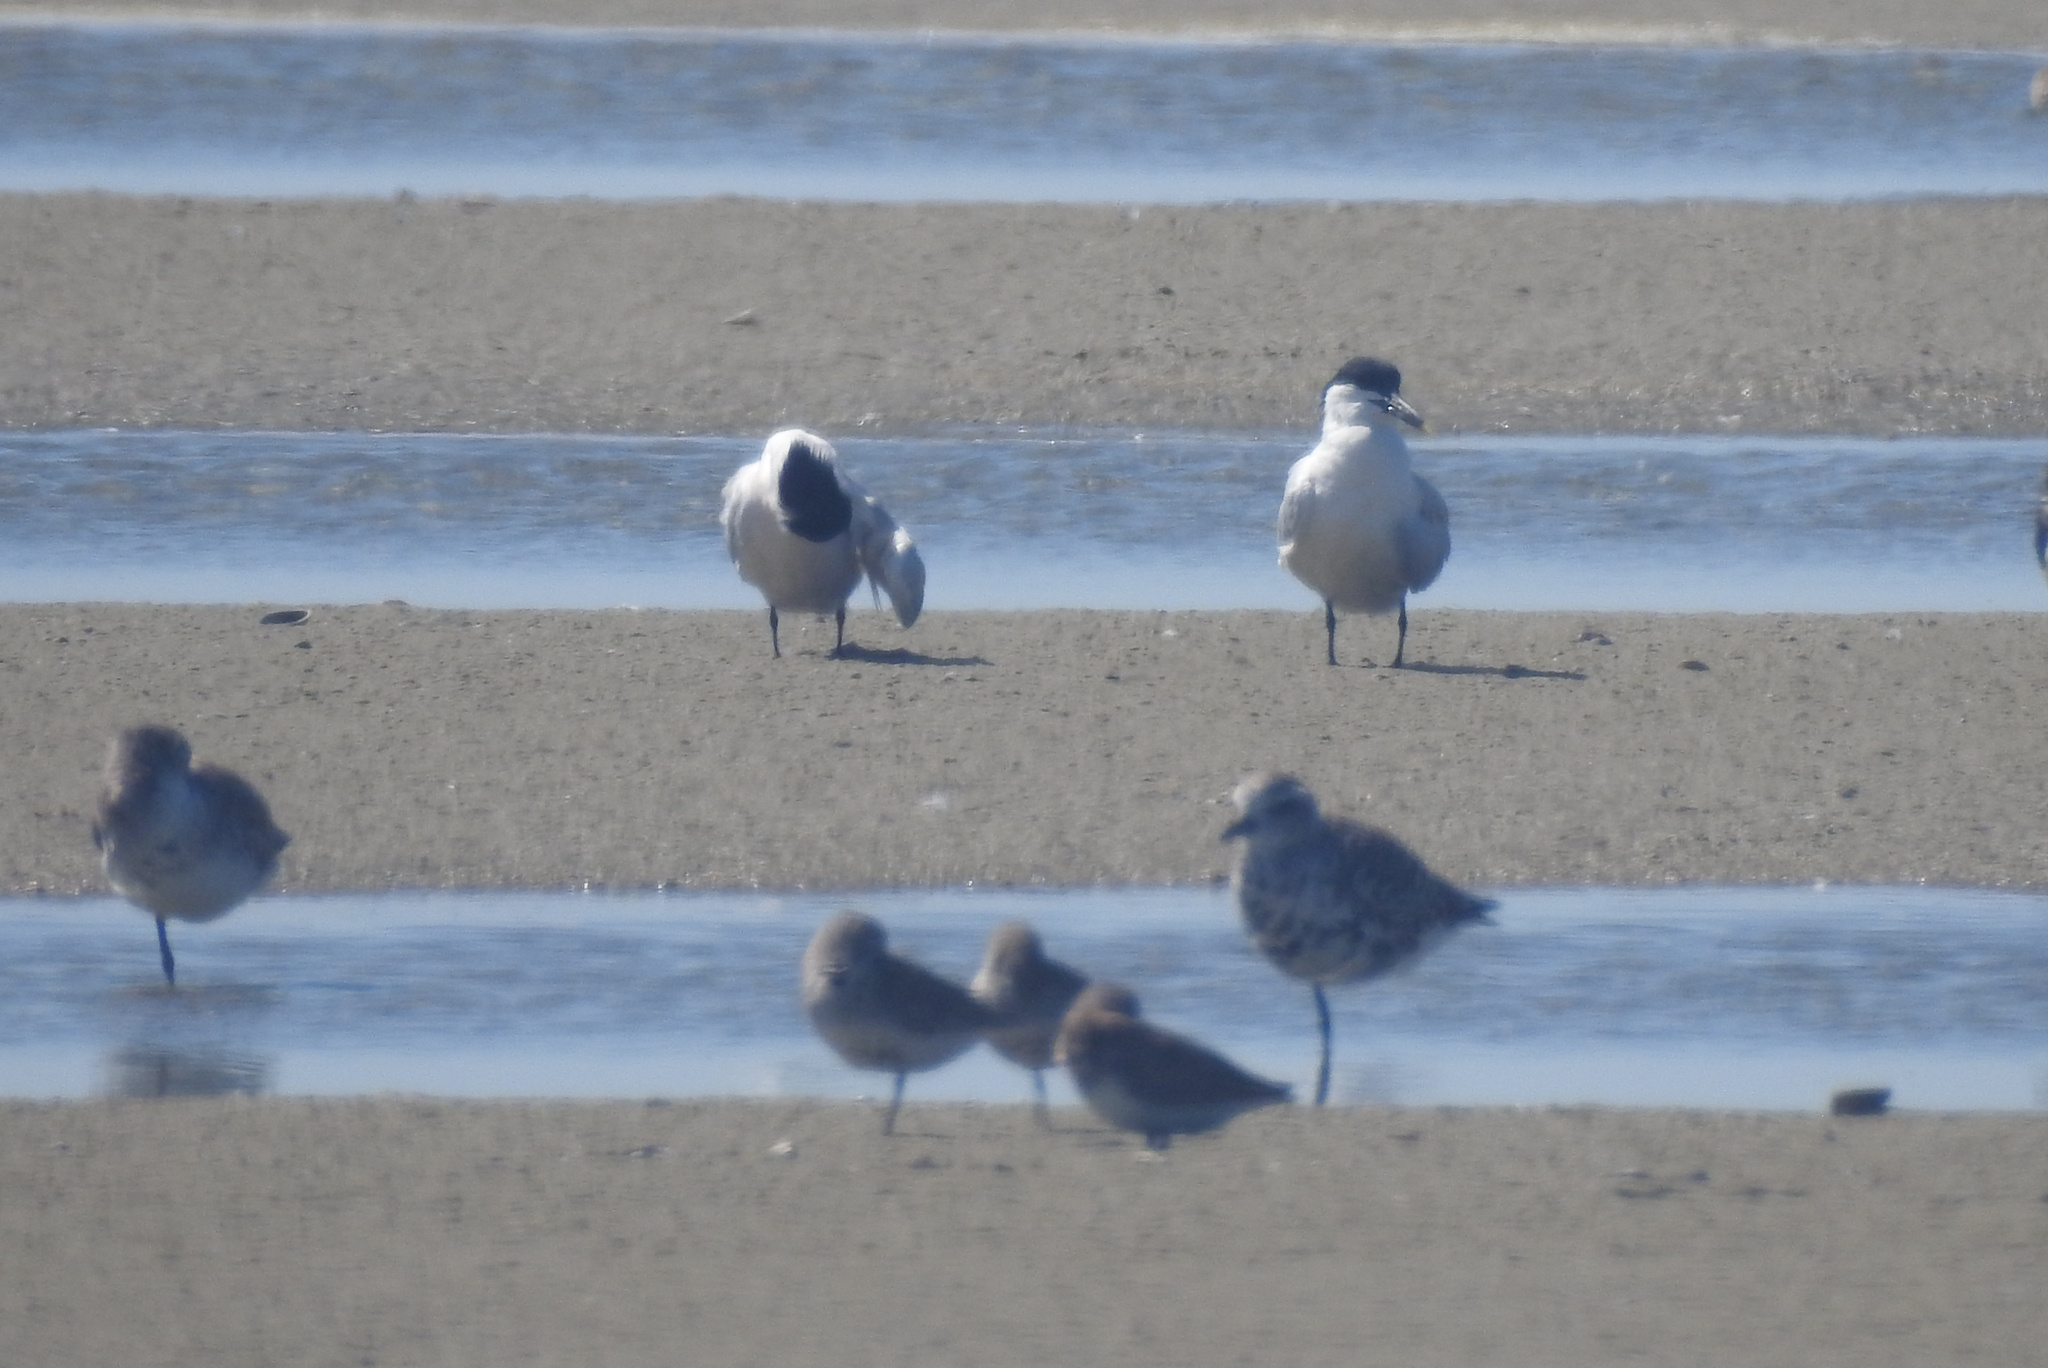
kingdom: Animalia
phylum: Chordata
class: Aves
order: Charadriiformes
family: Laridae
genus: Thalasseus
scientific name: Thalasseus sandvicensis
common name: Sandwich tern
